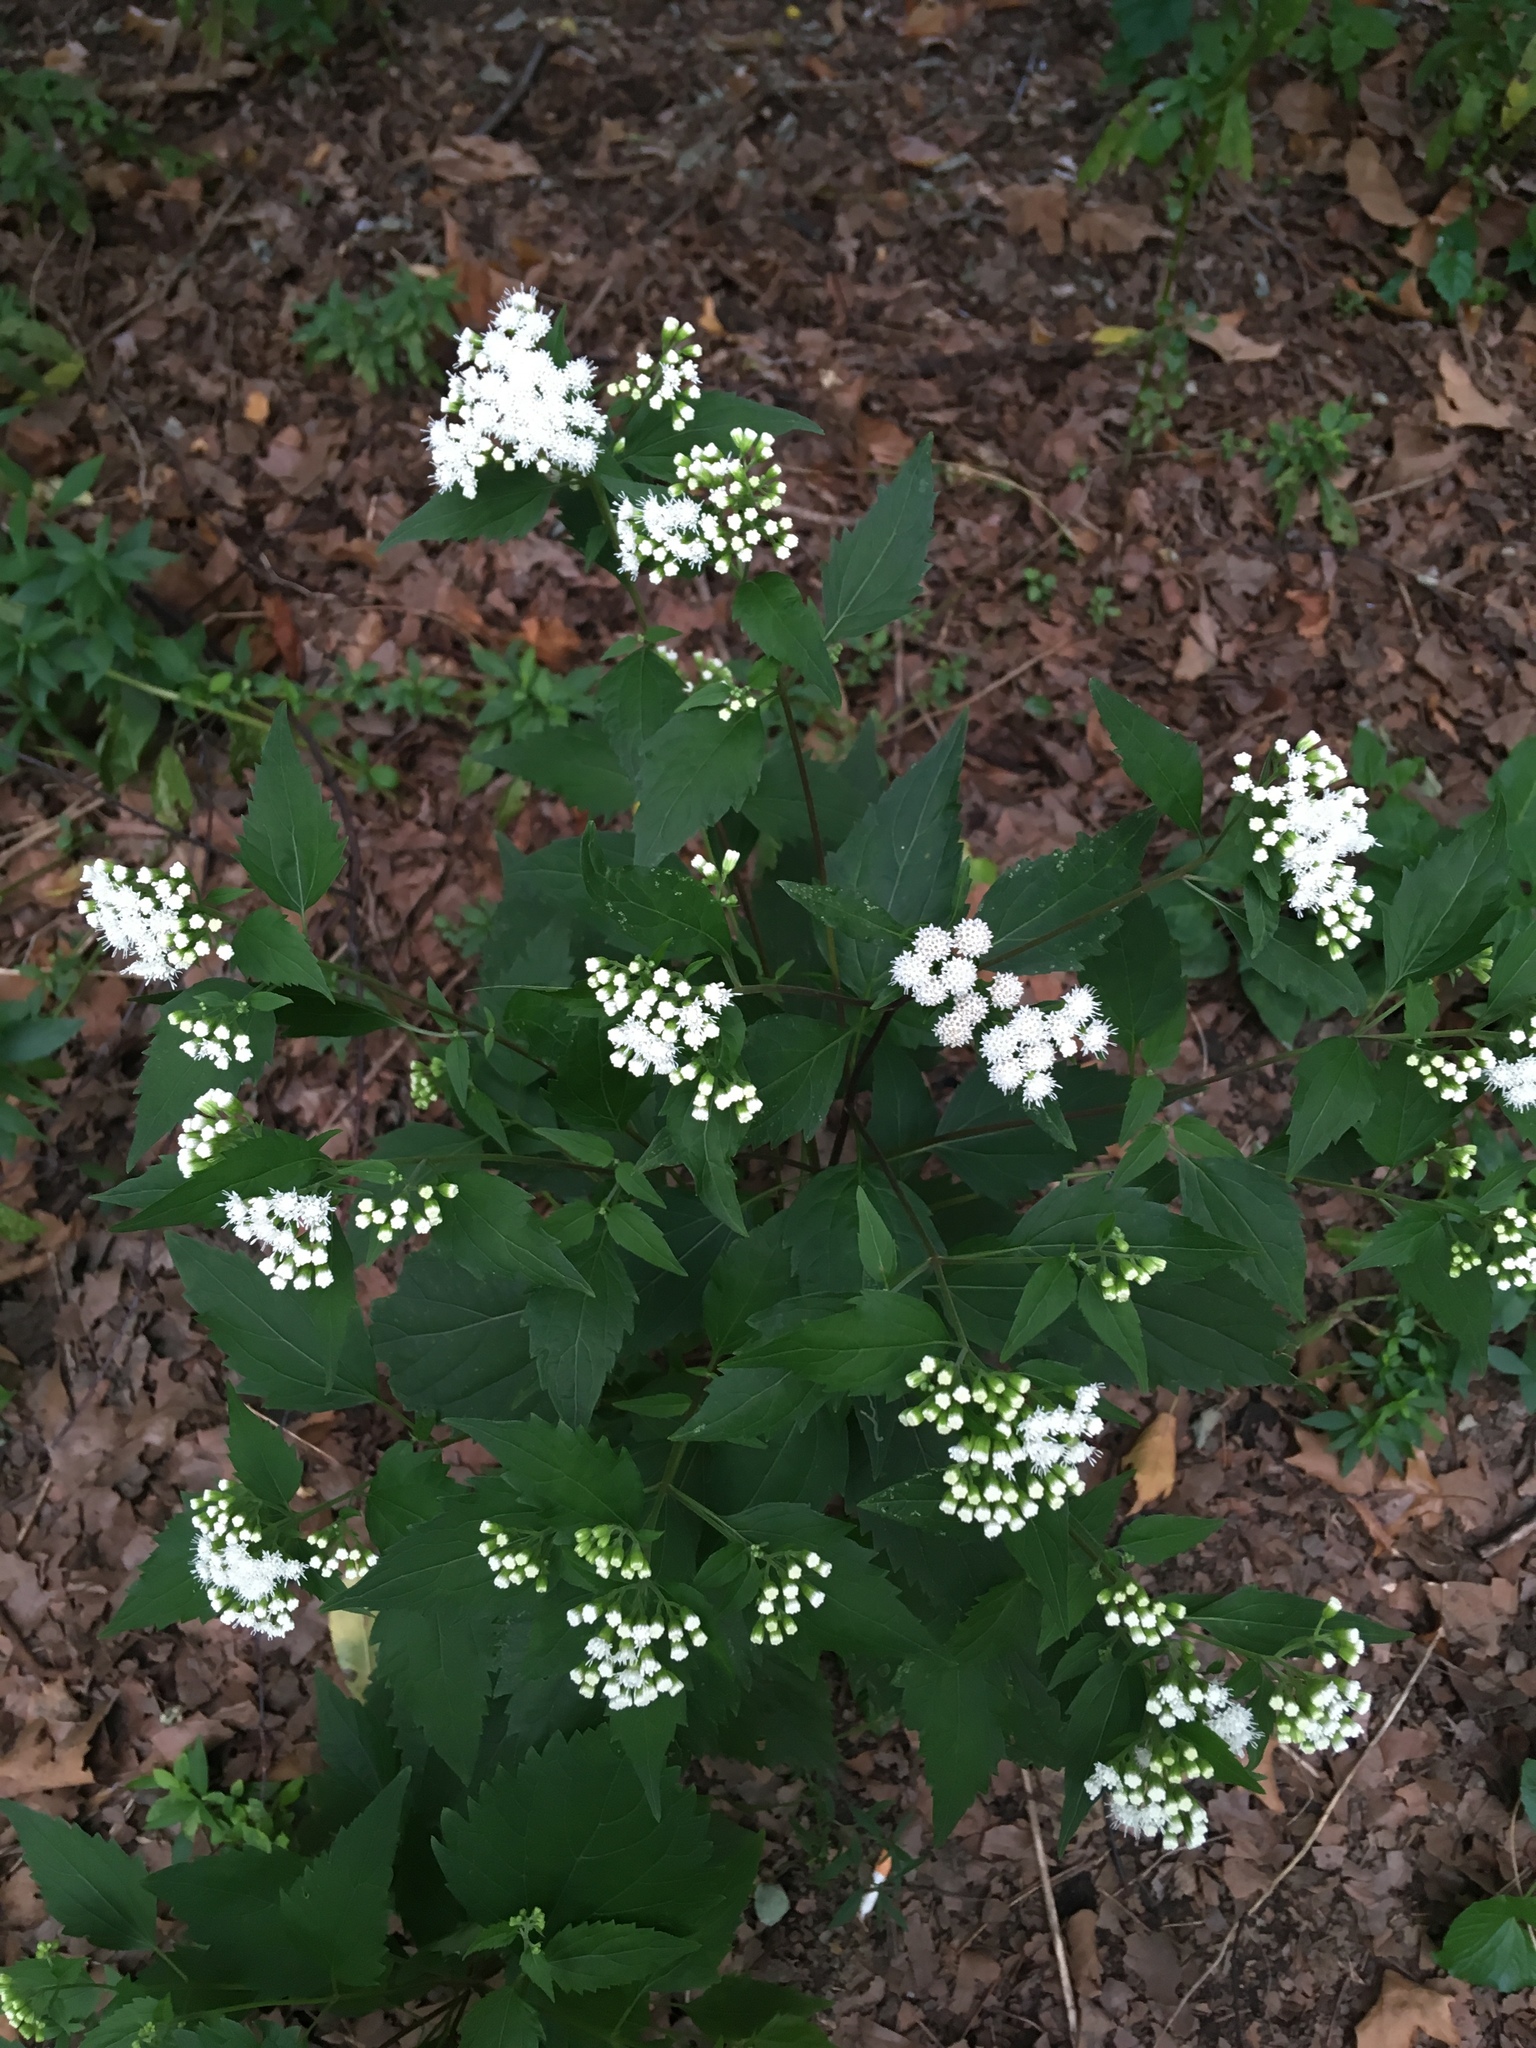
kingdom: Plantae
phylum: Tracheophyta
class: Magnoliopsida
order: Asterales
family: Asteraceae
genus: Ageratina
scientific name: Ageratina altissima
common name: White snakeroot
